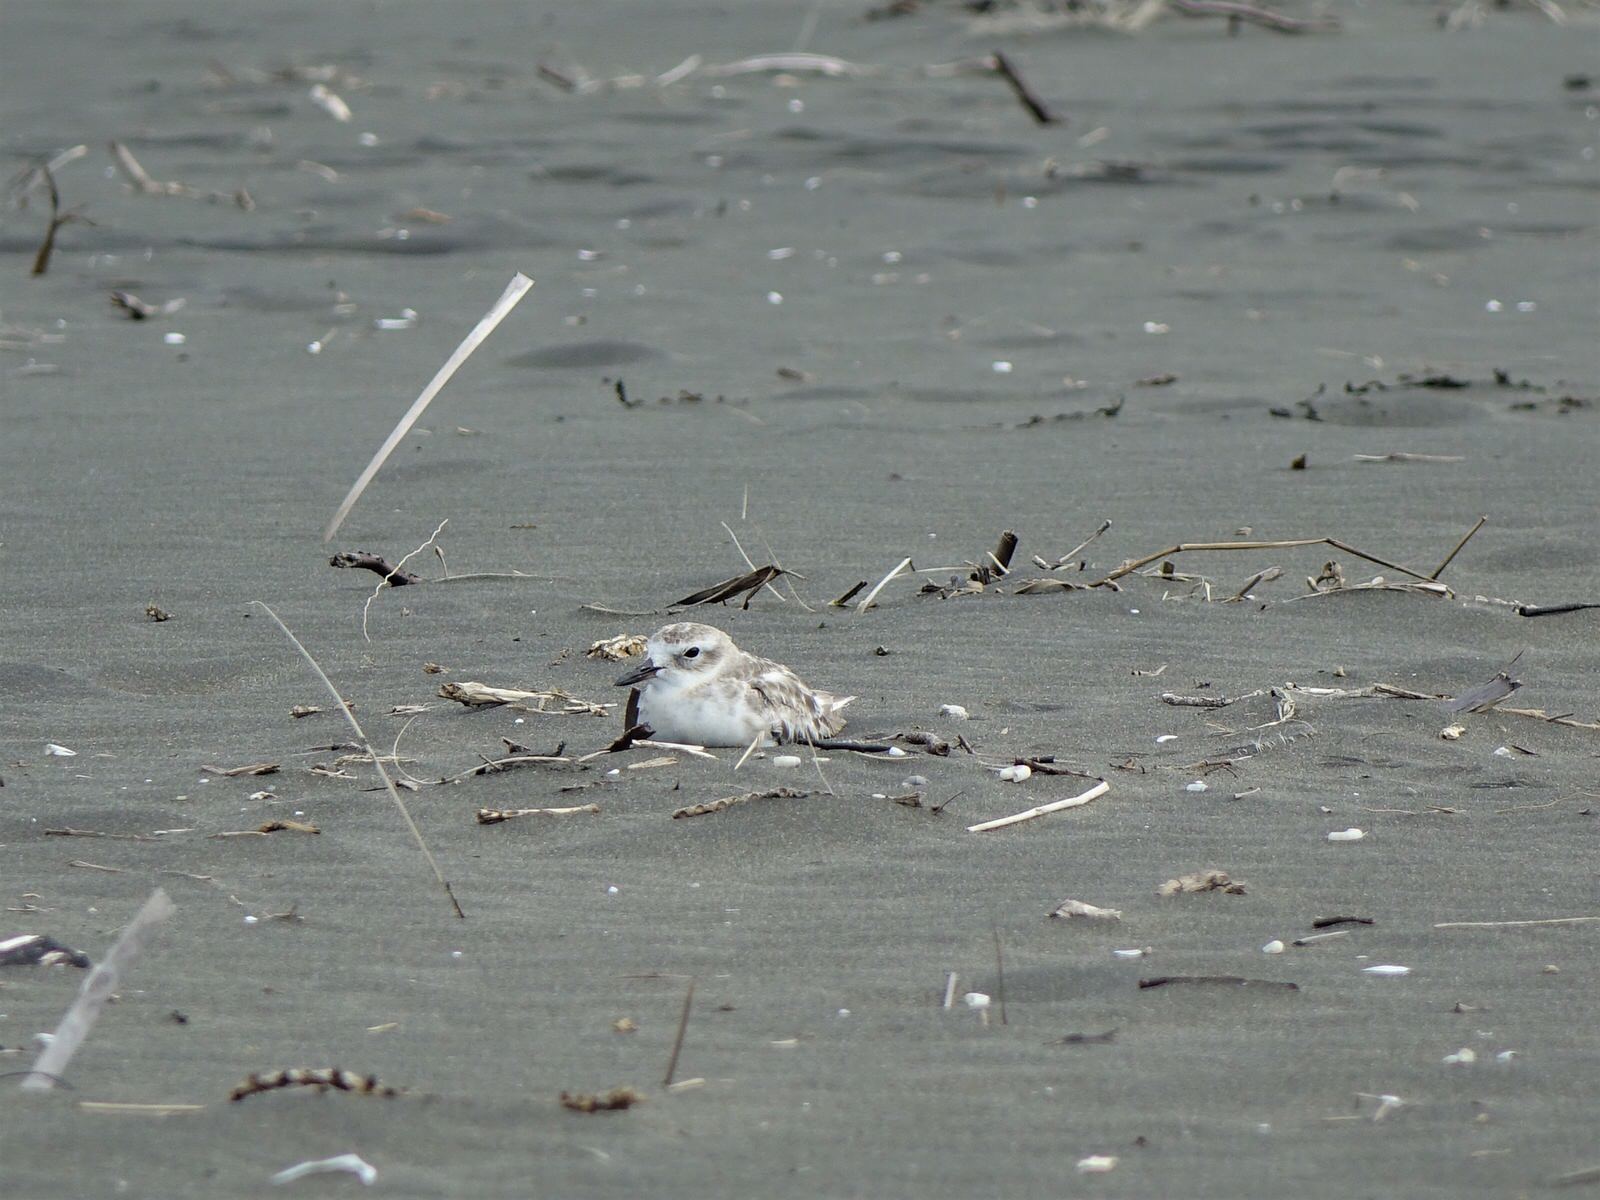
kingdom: Animalia
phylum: Chordata
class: Aves
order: Charadriiformes
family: Charadriidae
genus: Anarhynchus
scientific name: Anarhynchus
